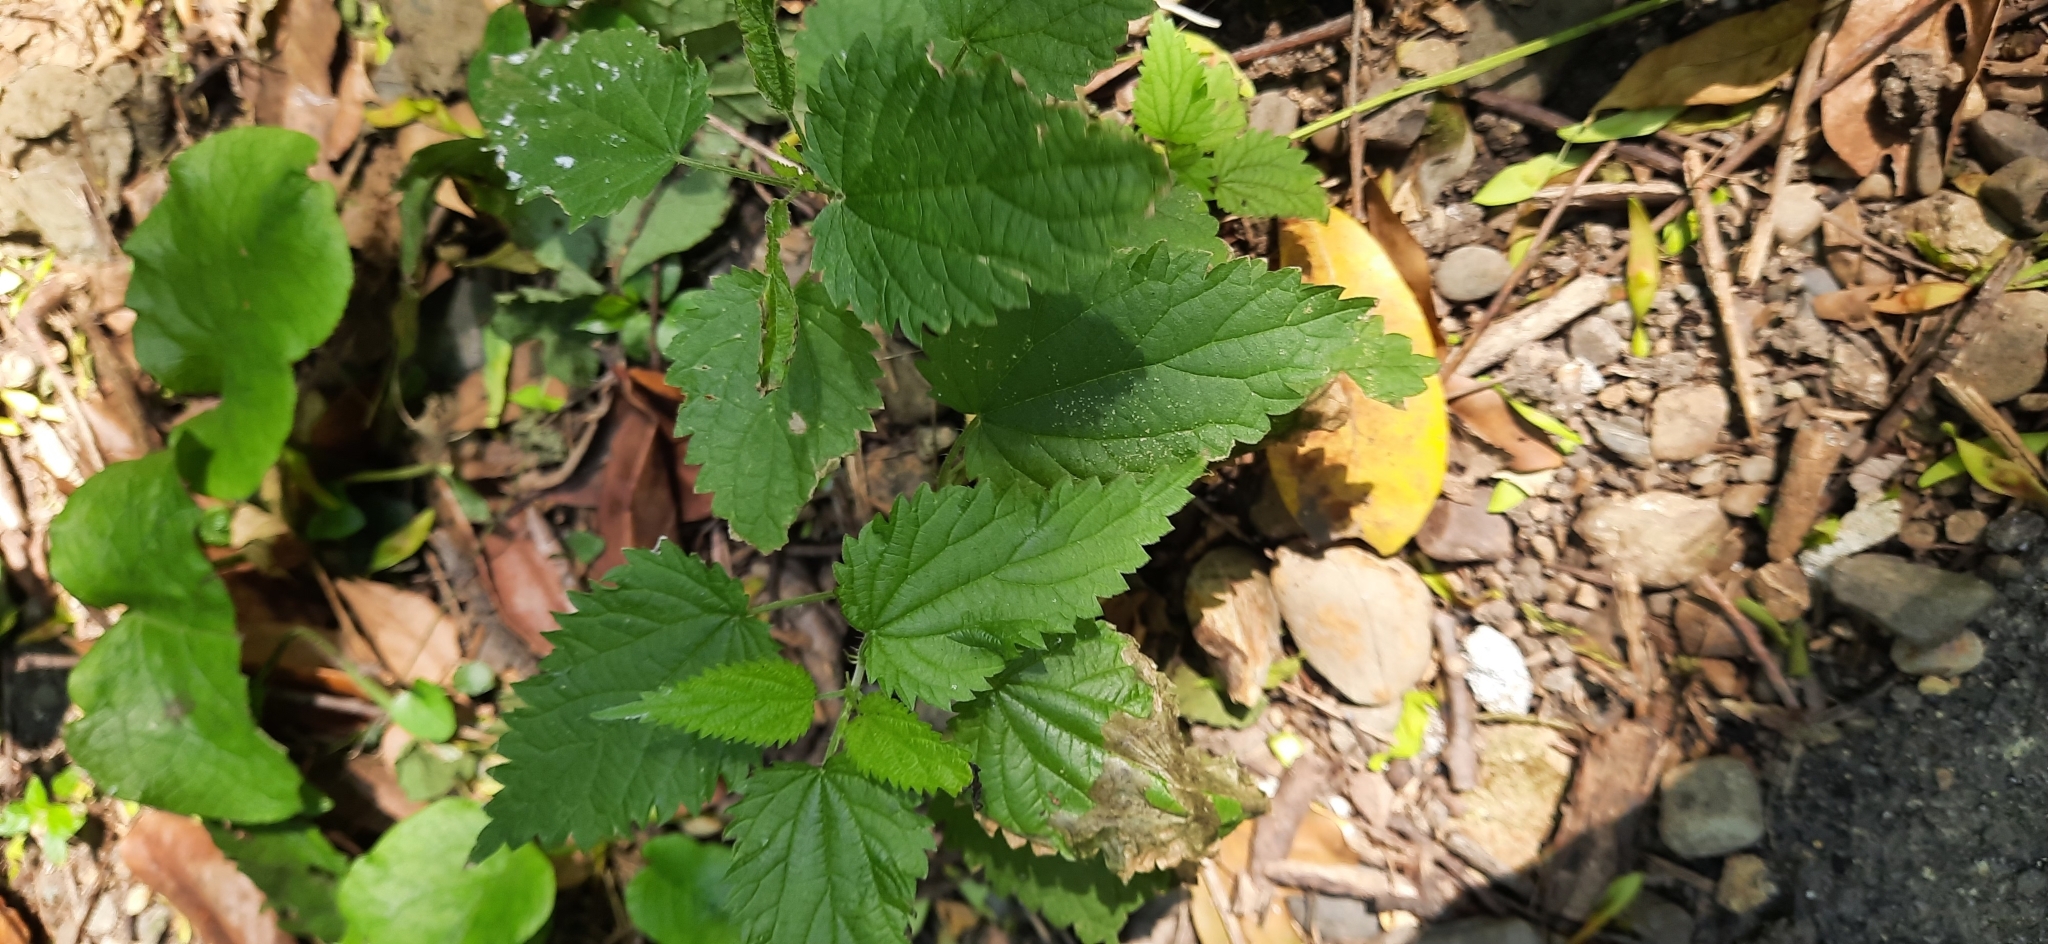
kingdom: Plantae
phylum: Tracheophyta
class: Magnoliopsida
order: Rosales
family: Urticaceae
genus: Urtica
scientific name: Urtica dioica
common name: Common nettle
